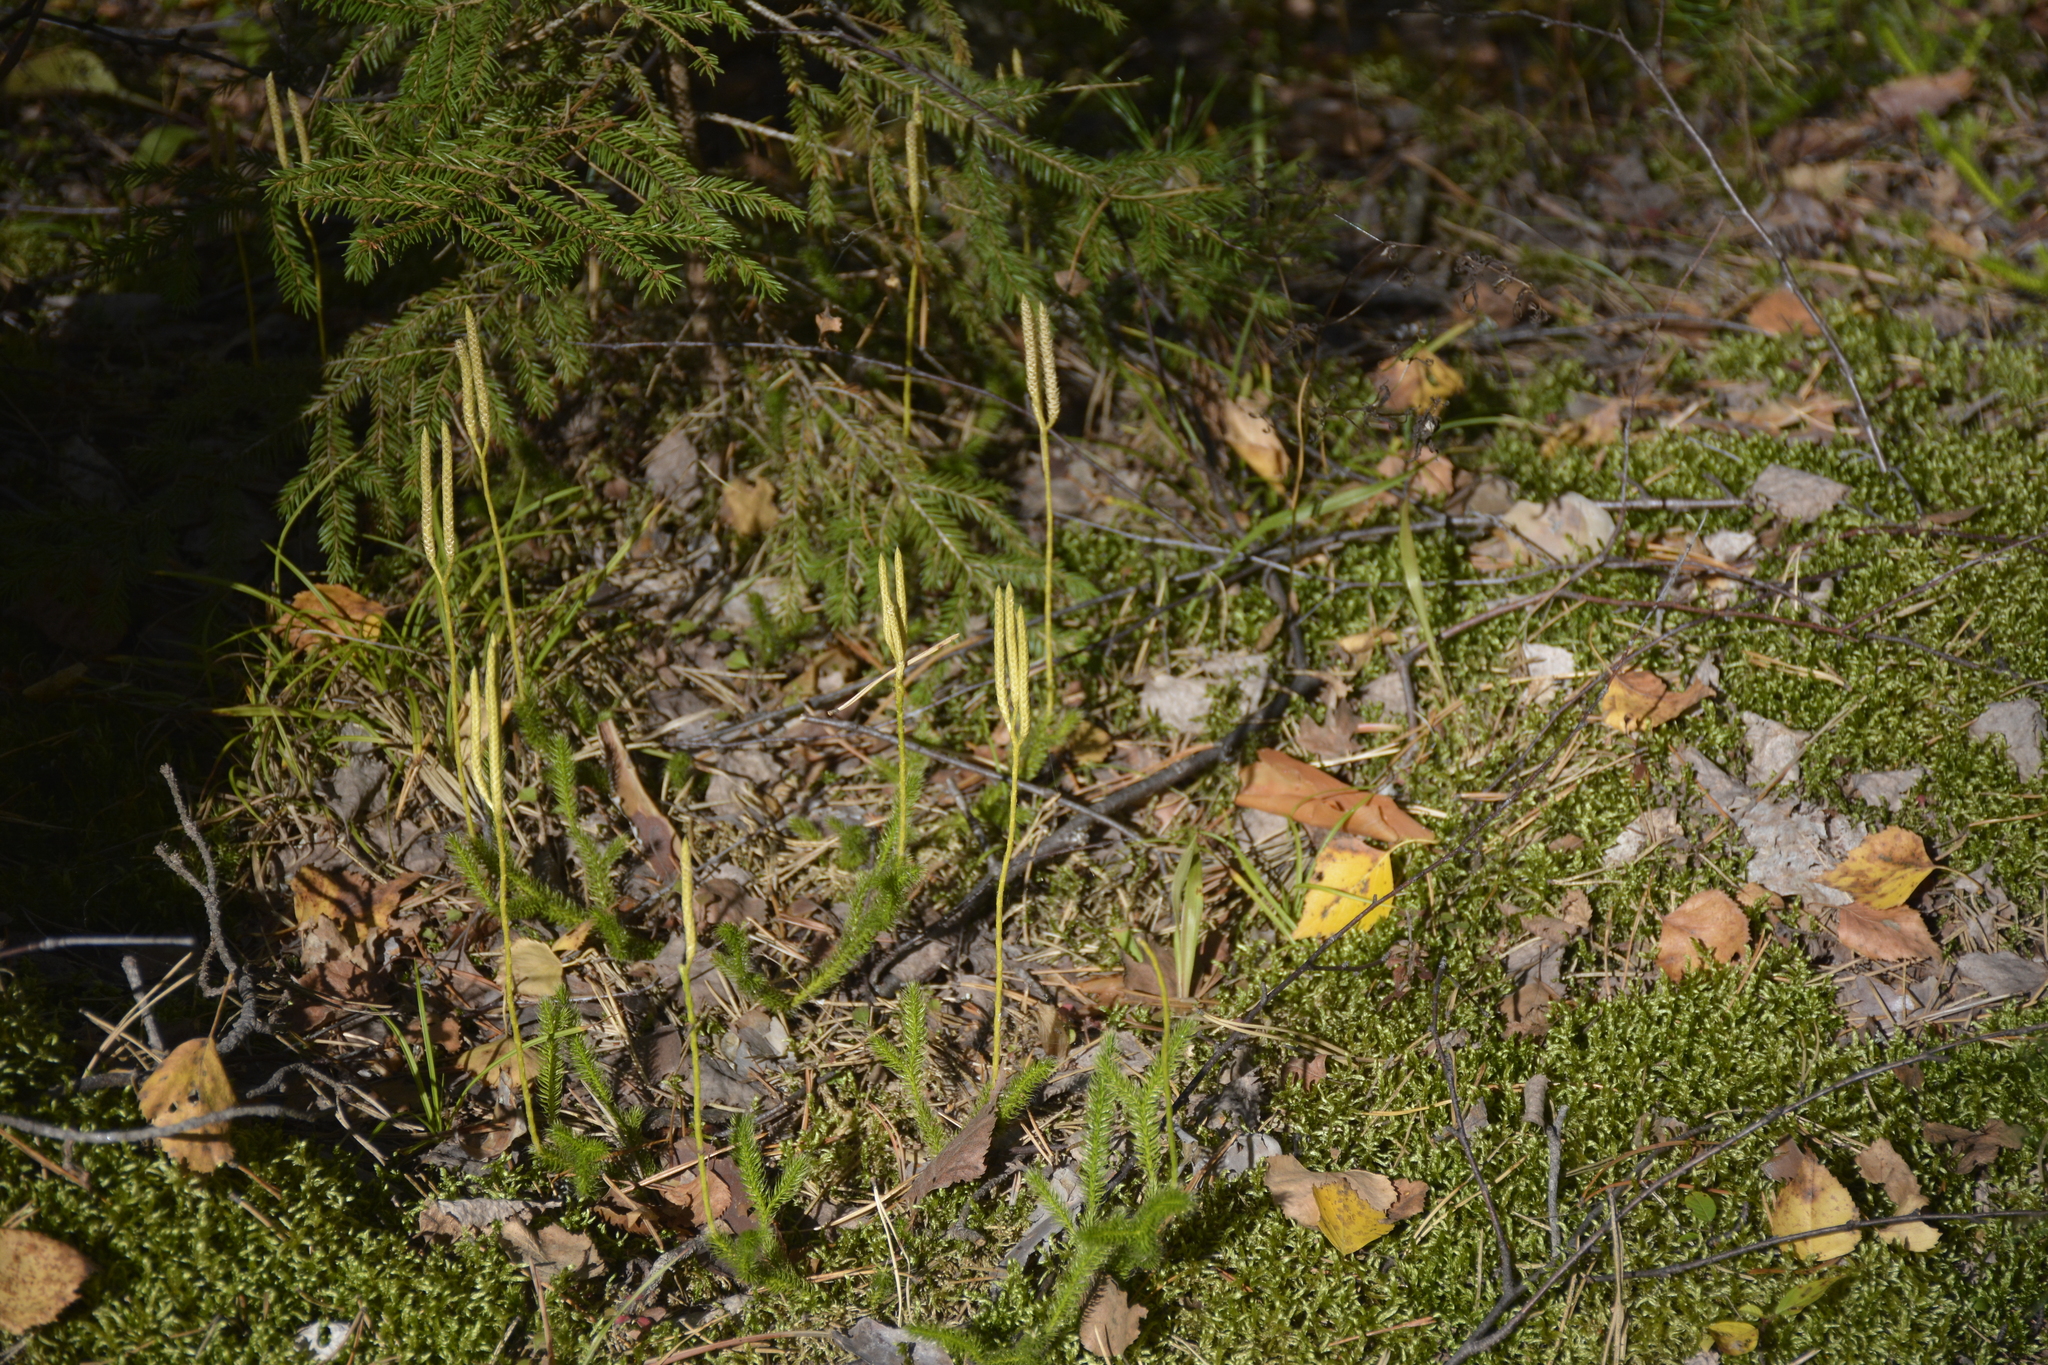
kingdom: Plantae
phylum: Tracheophyta
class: Lycopodiopsida
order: Lycopodiales
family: Lycopodiaceae
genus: Lycopodium
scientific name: Lycopodium clavatum
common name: Stag's-horn clubmoss
